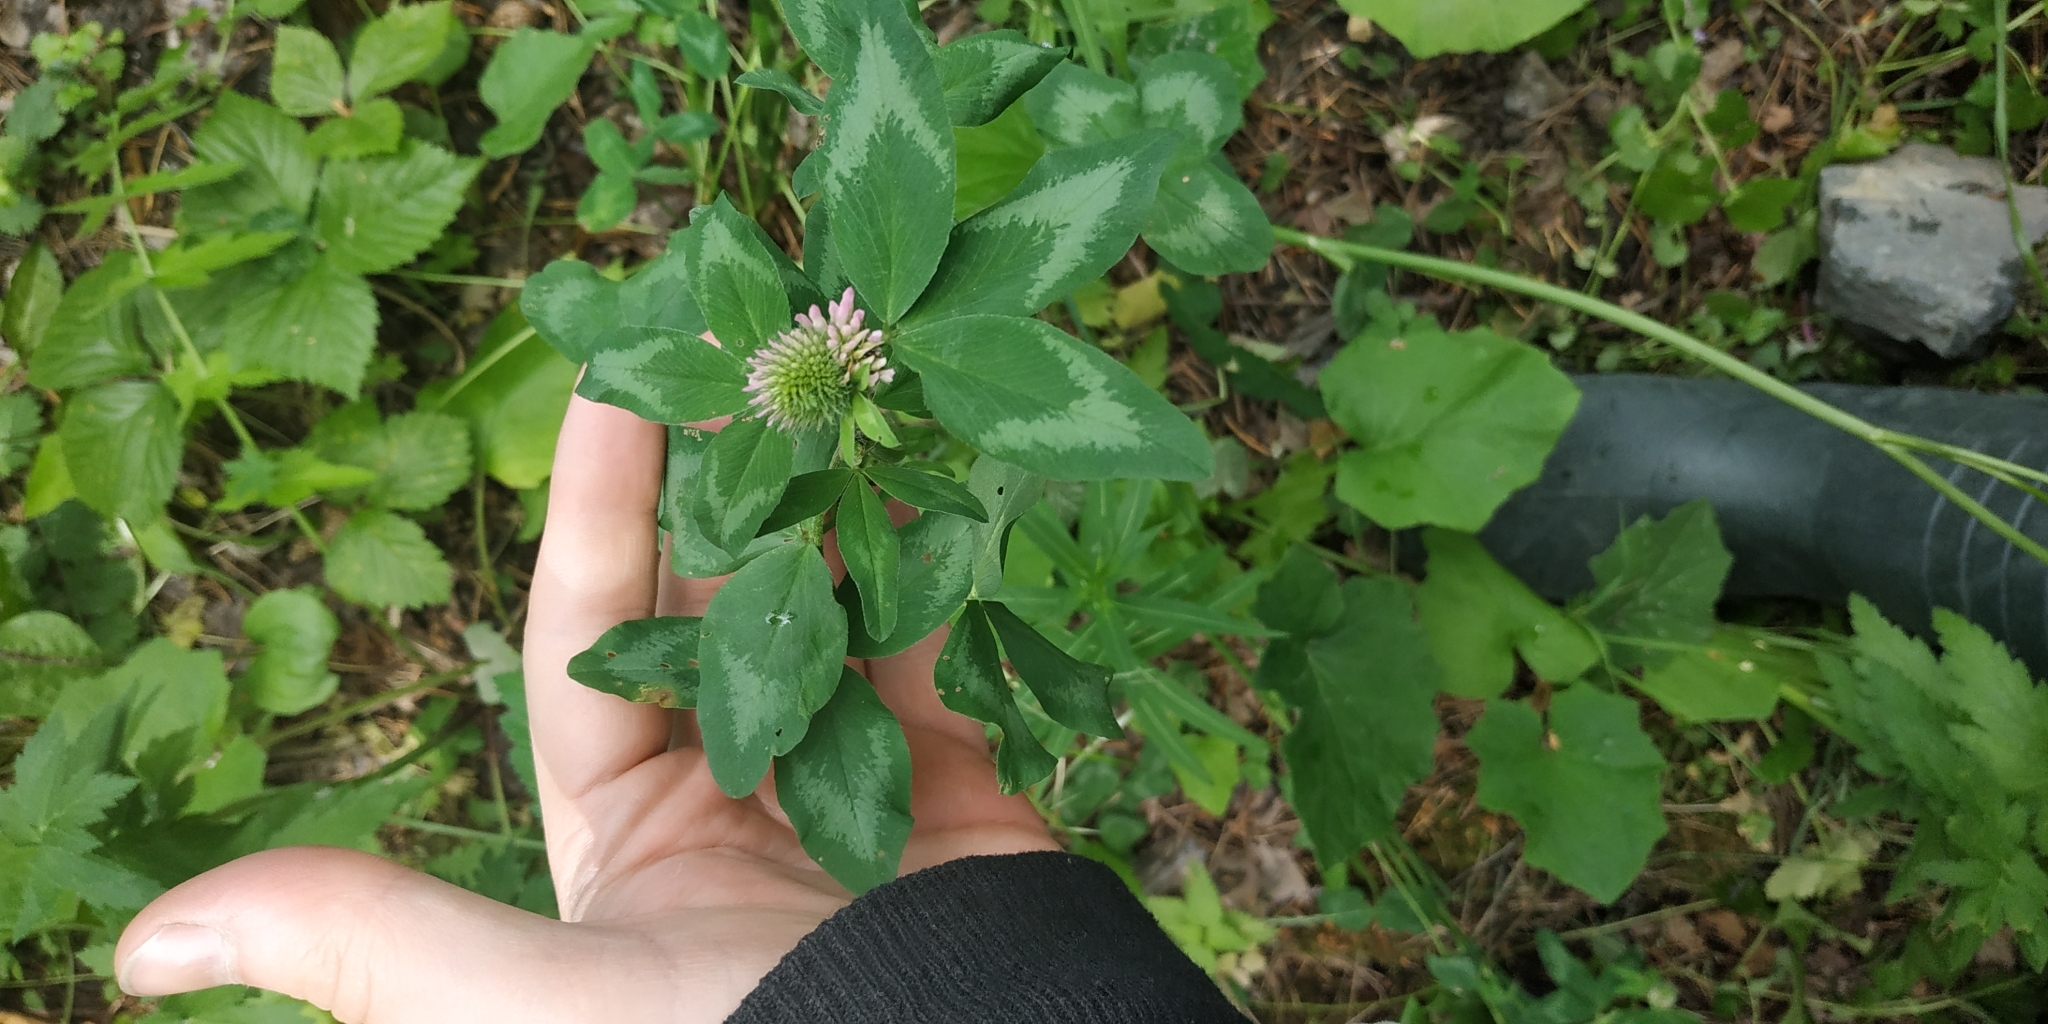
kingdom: Plantae
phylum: Tracheophyta
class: Magnoliopsida
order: Fabales
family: Fabaceae
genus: Trifolium
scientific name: Trifolium pratense
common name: Red clover
